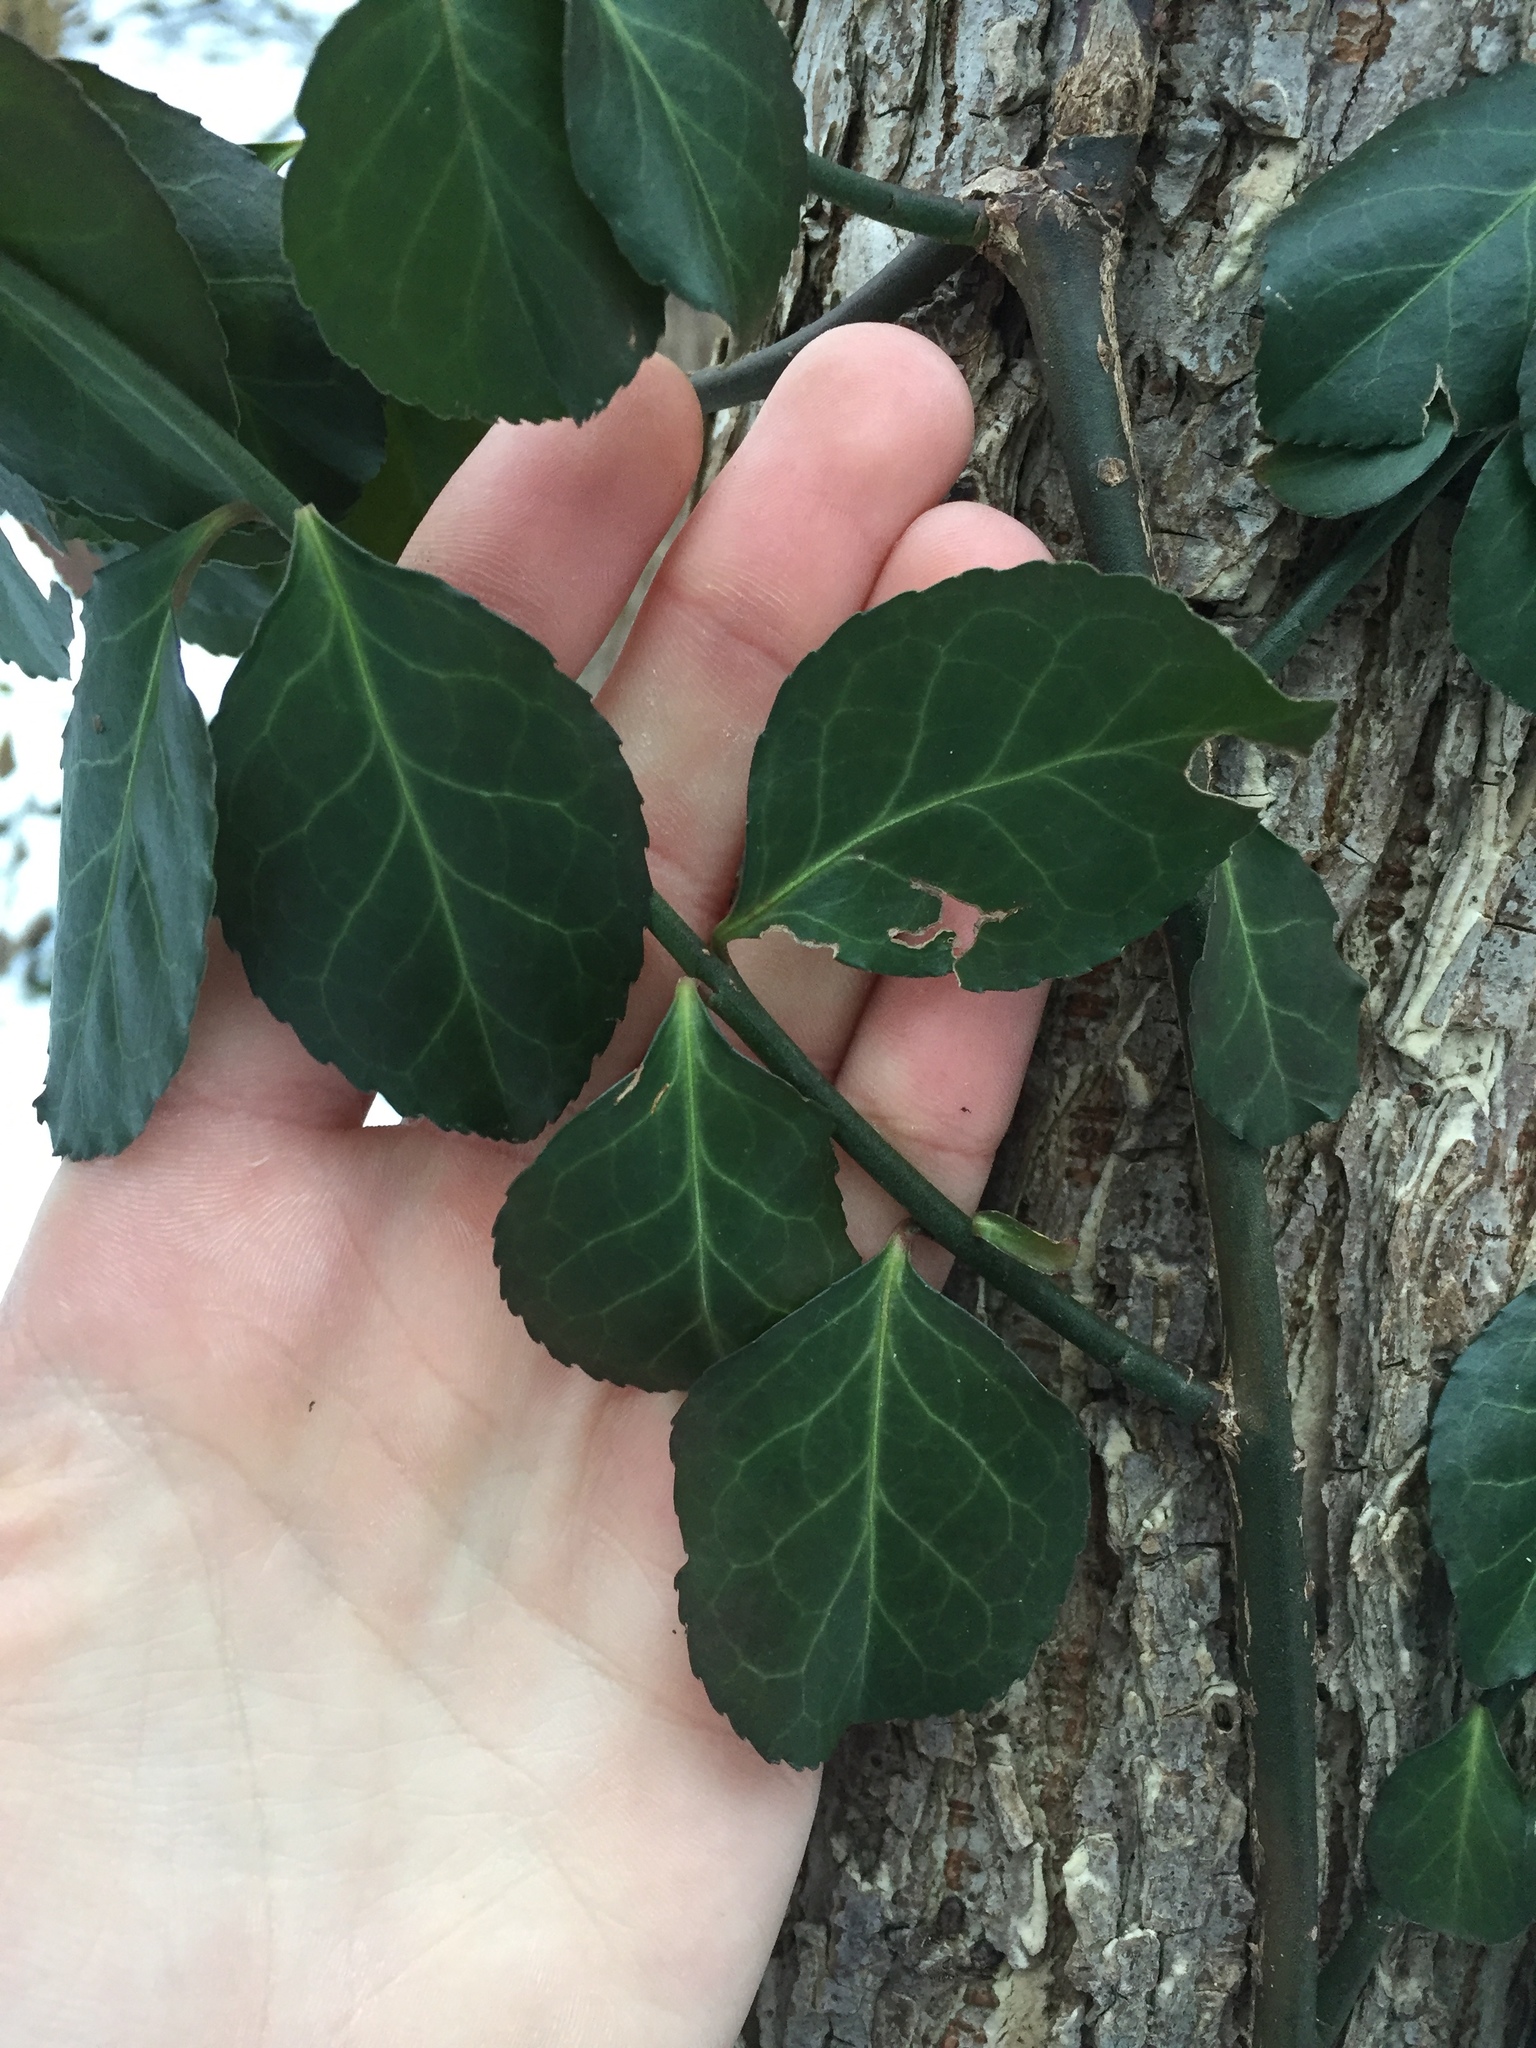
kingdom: Plantae
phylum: Tracheophyta
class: Magnoliopsida
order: Celastrales
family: Celastraceae
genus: Euonymus
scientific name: Euonymus fortunei
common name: Climbing euonymus
